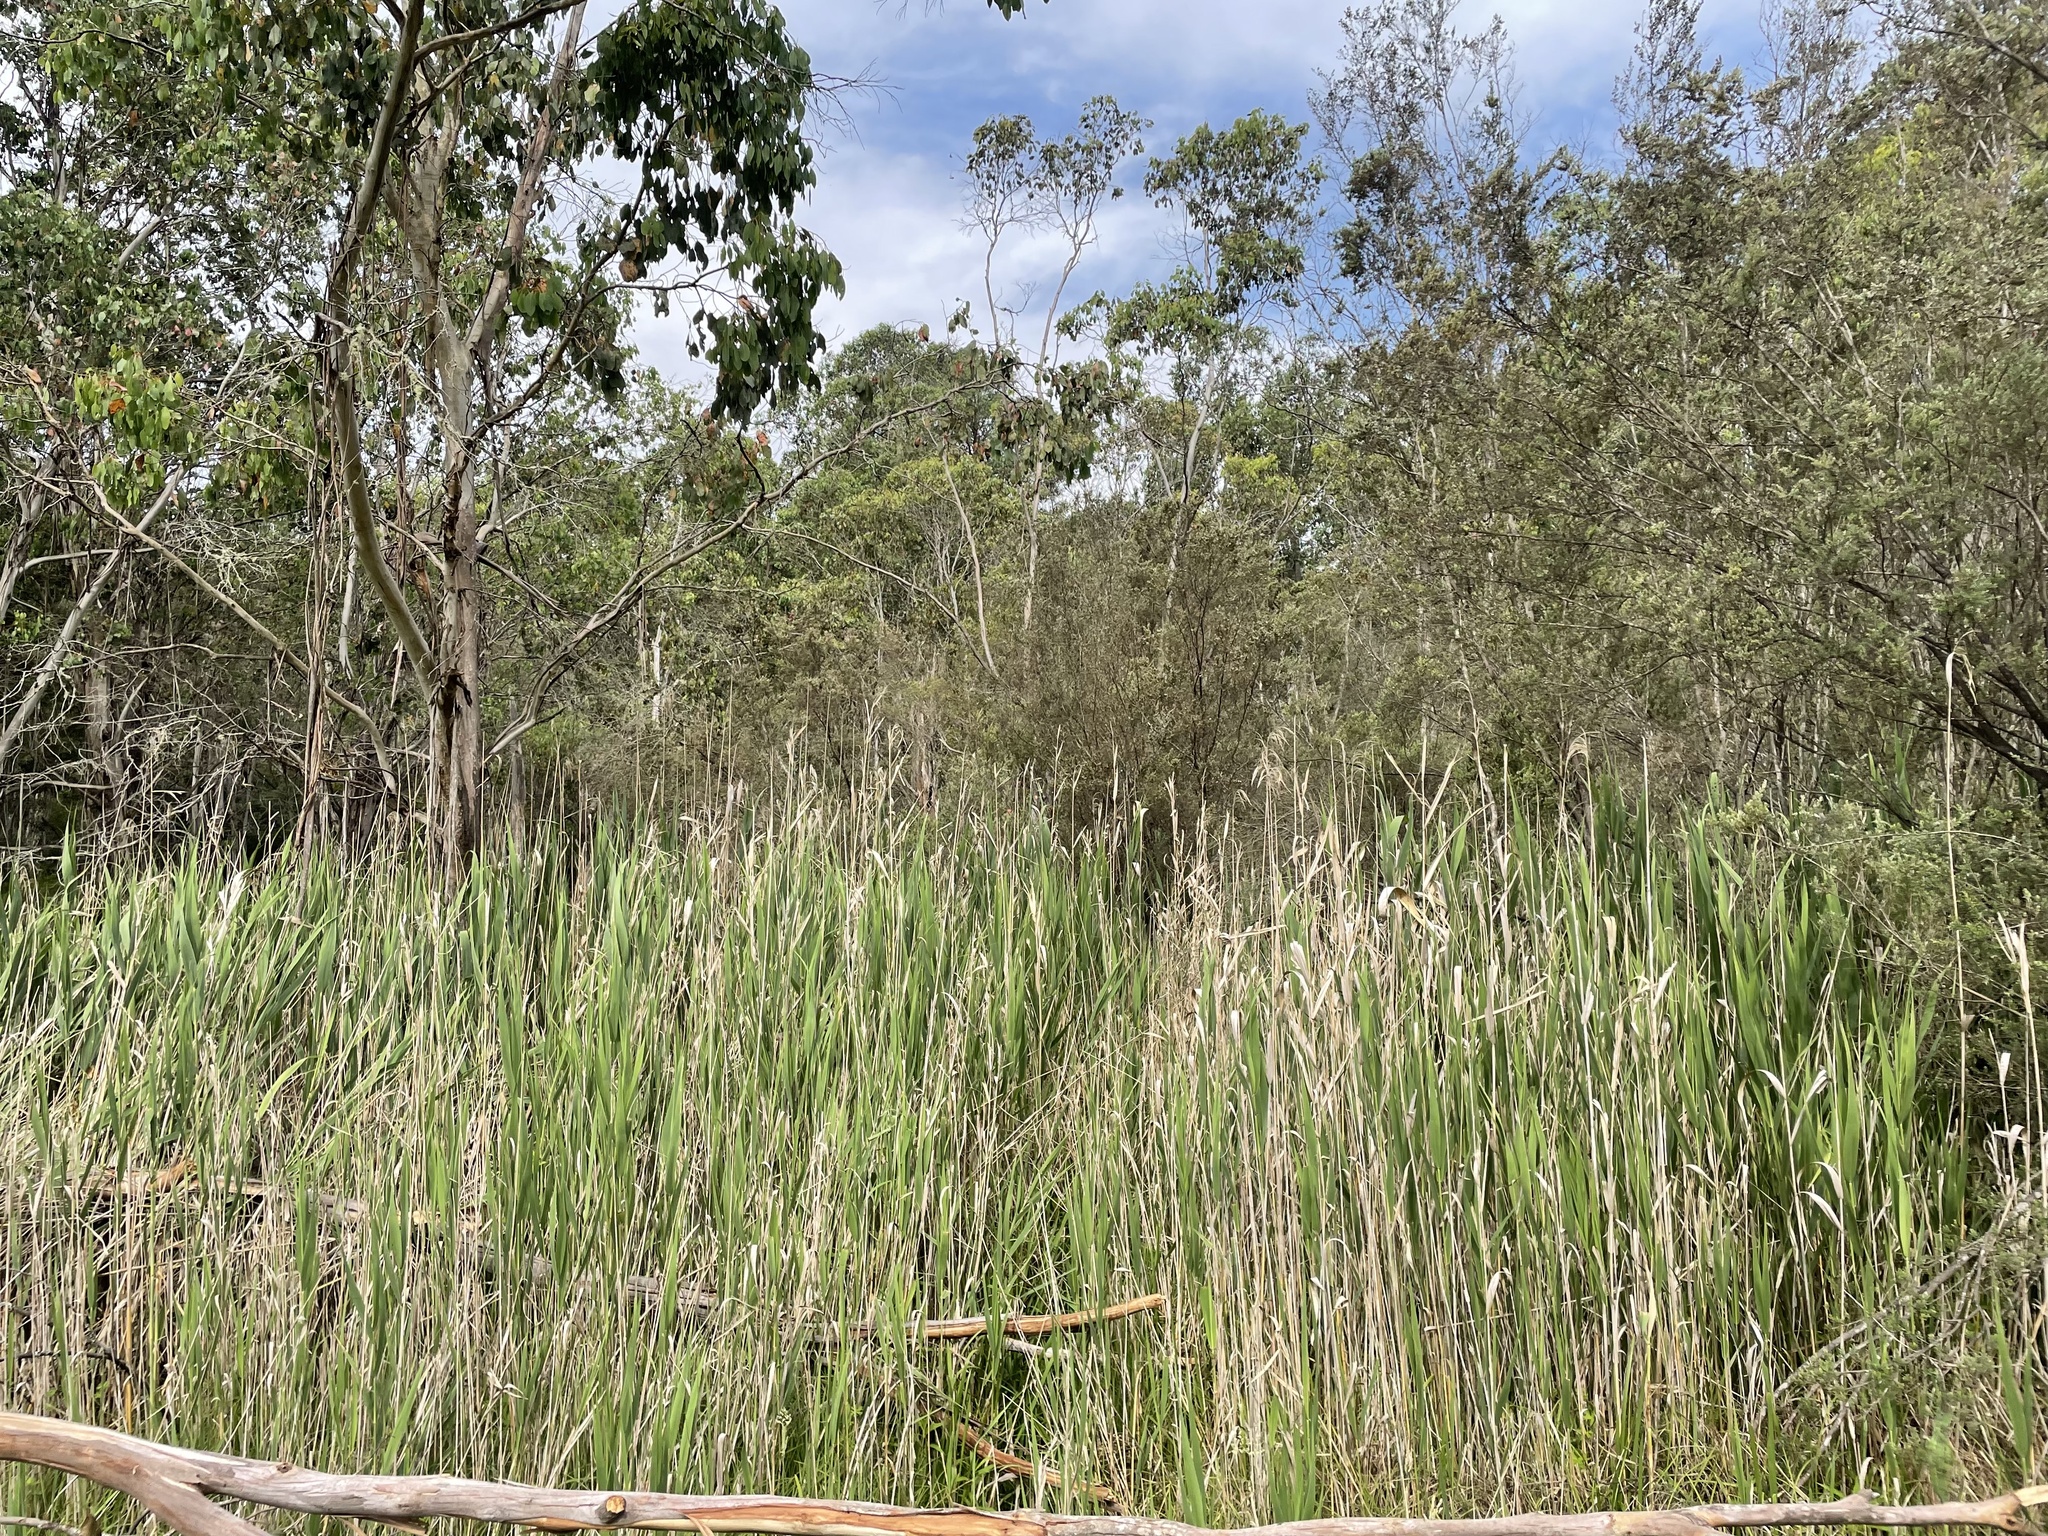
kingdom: Plantae
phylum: Tracheophyta
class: Liliopsida
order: Poales
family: Poaceae
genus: Phragmites
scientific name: Phragmites australis
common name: Common reed
